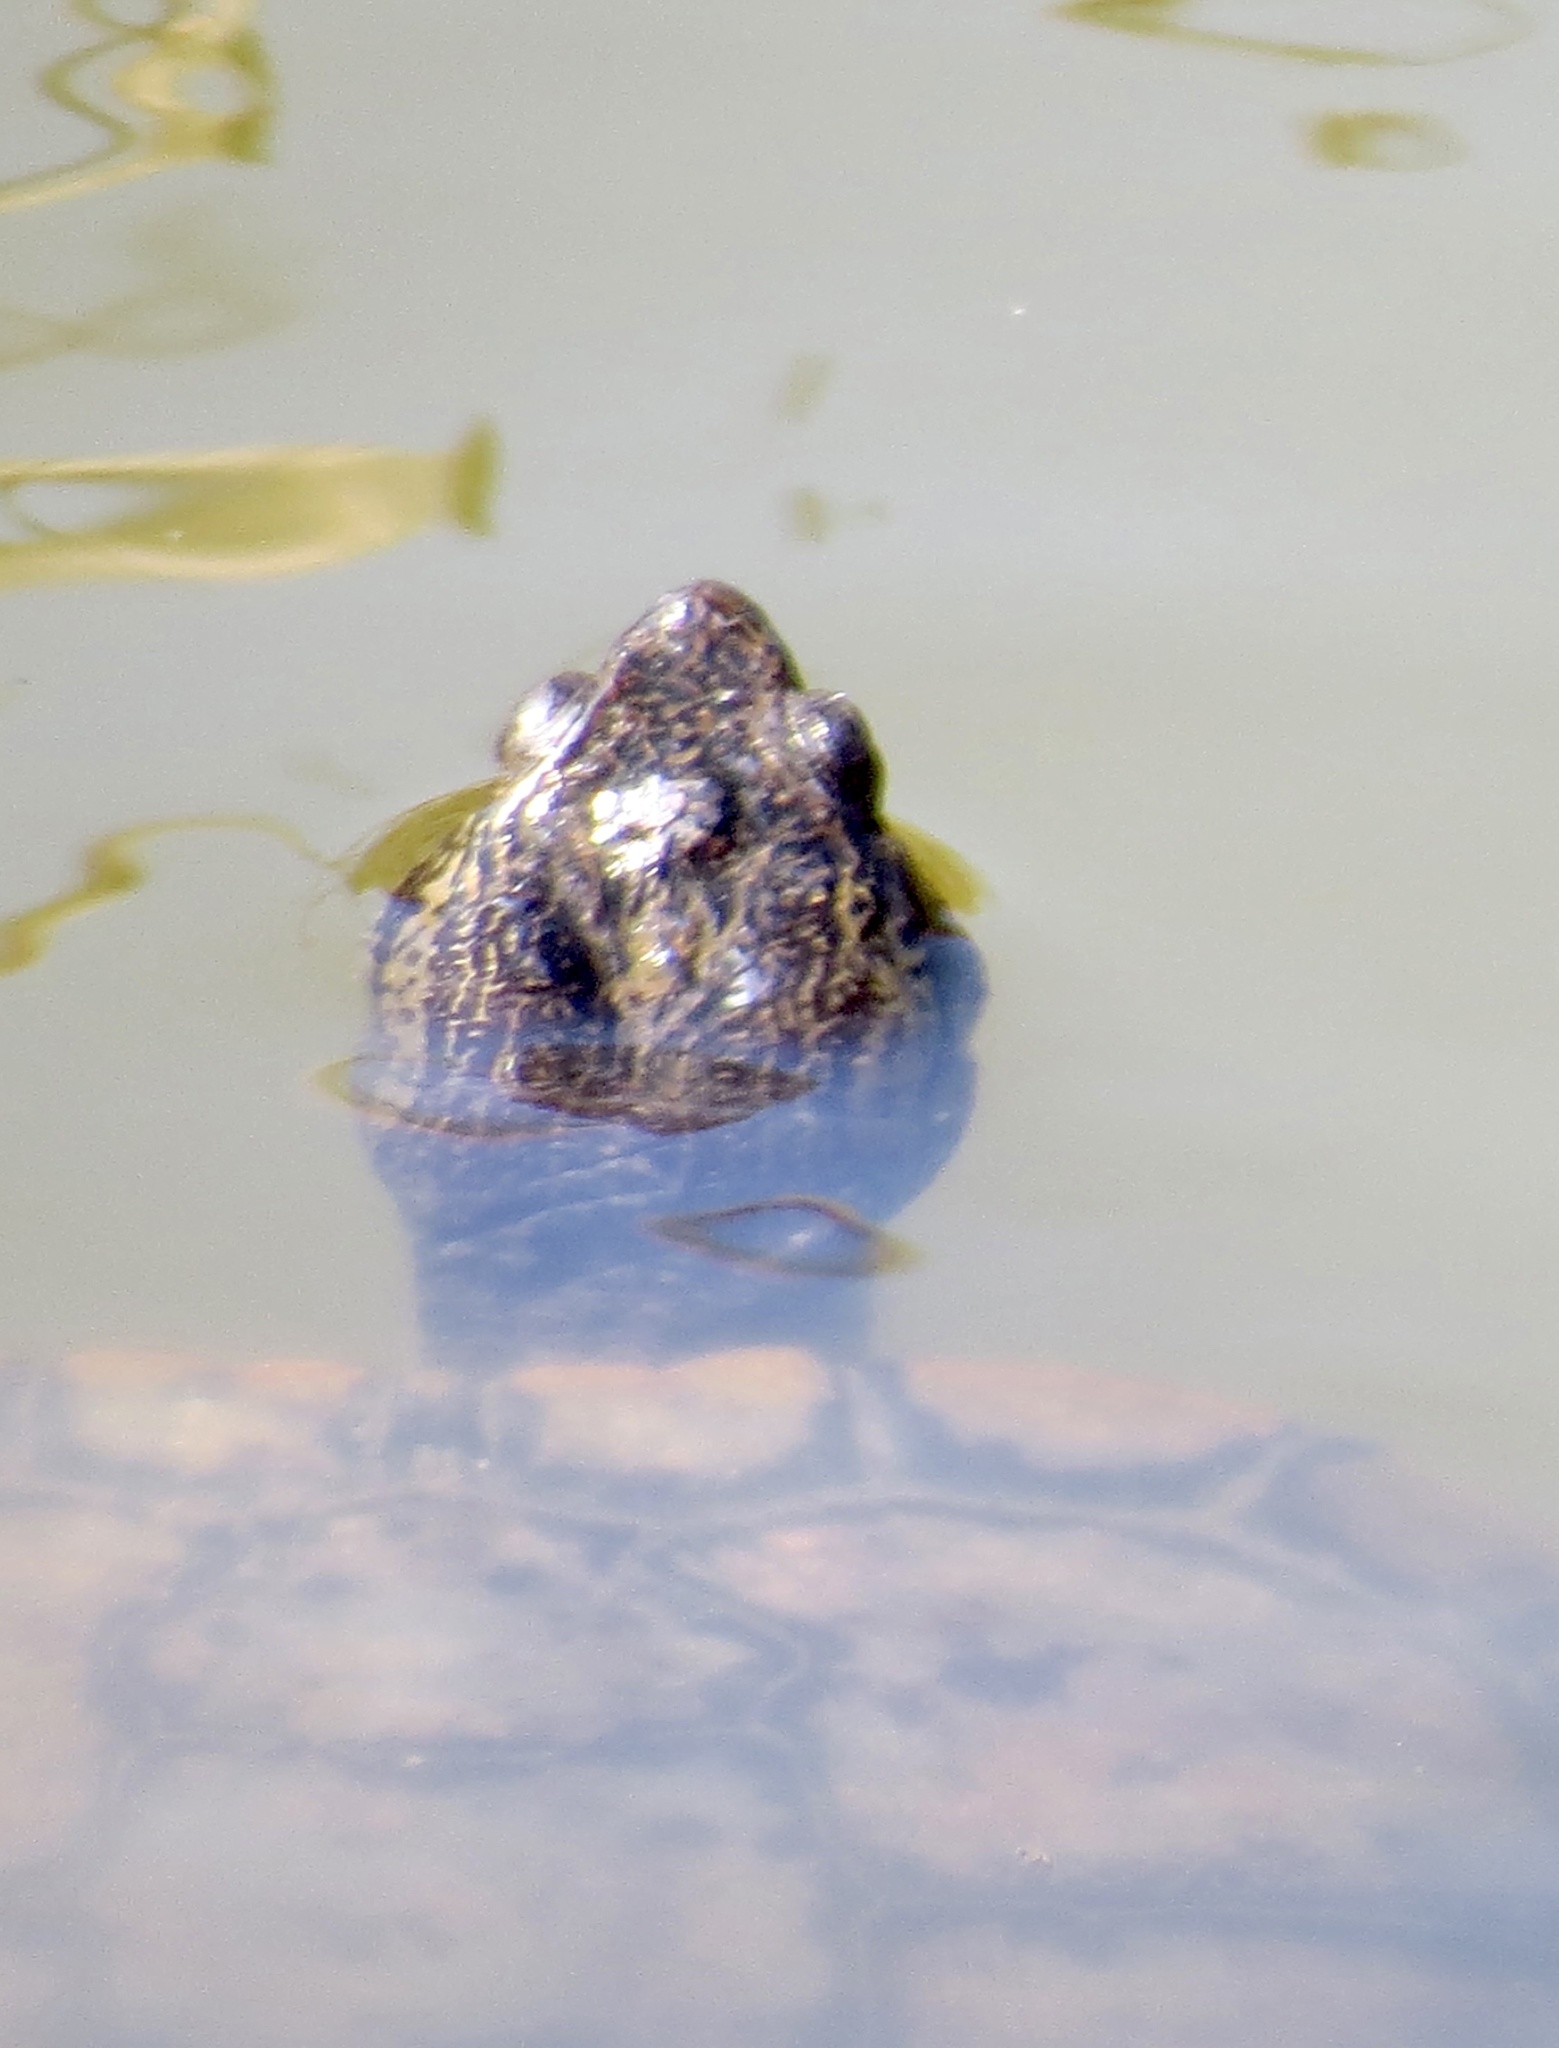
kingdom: Animalia
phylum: Chordata
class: Testudines
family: Emydidae
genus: Trachemys
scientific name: Trachemys scripta
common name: Slider
